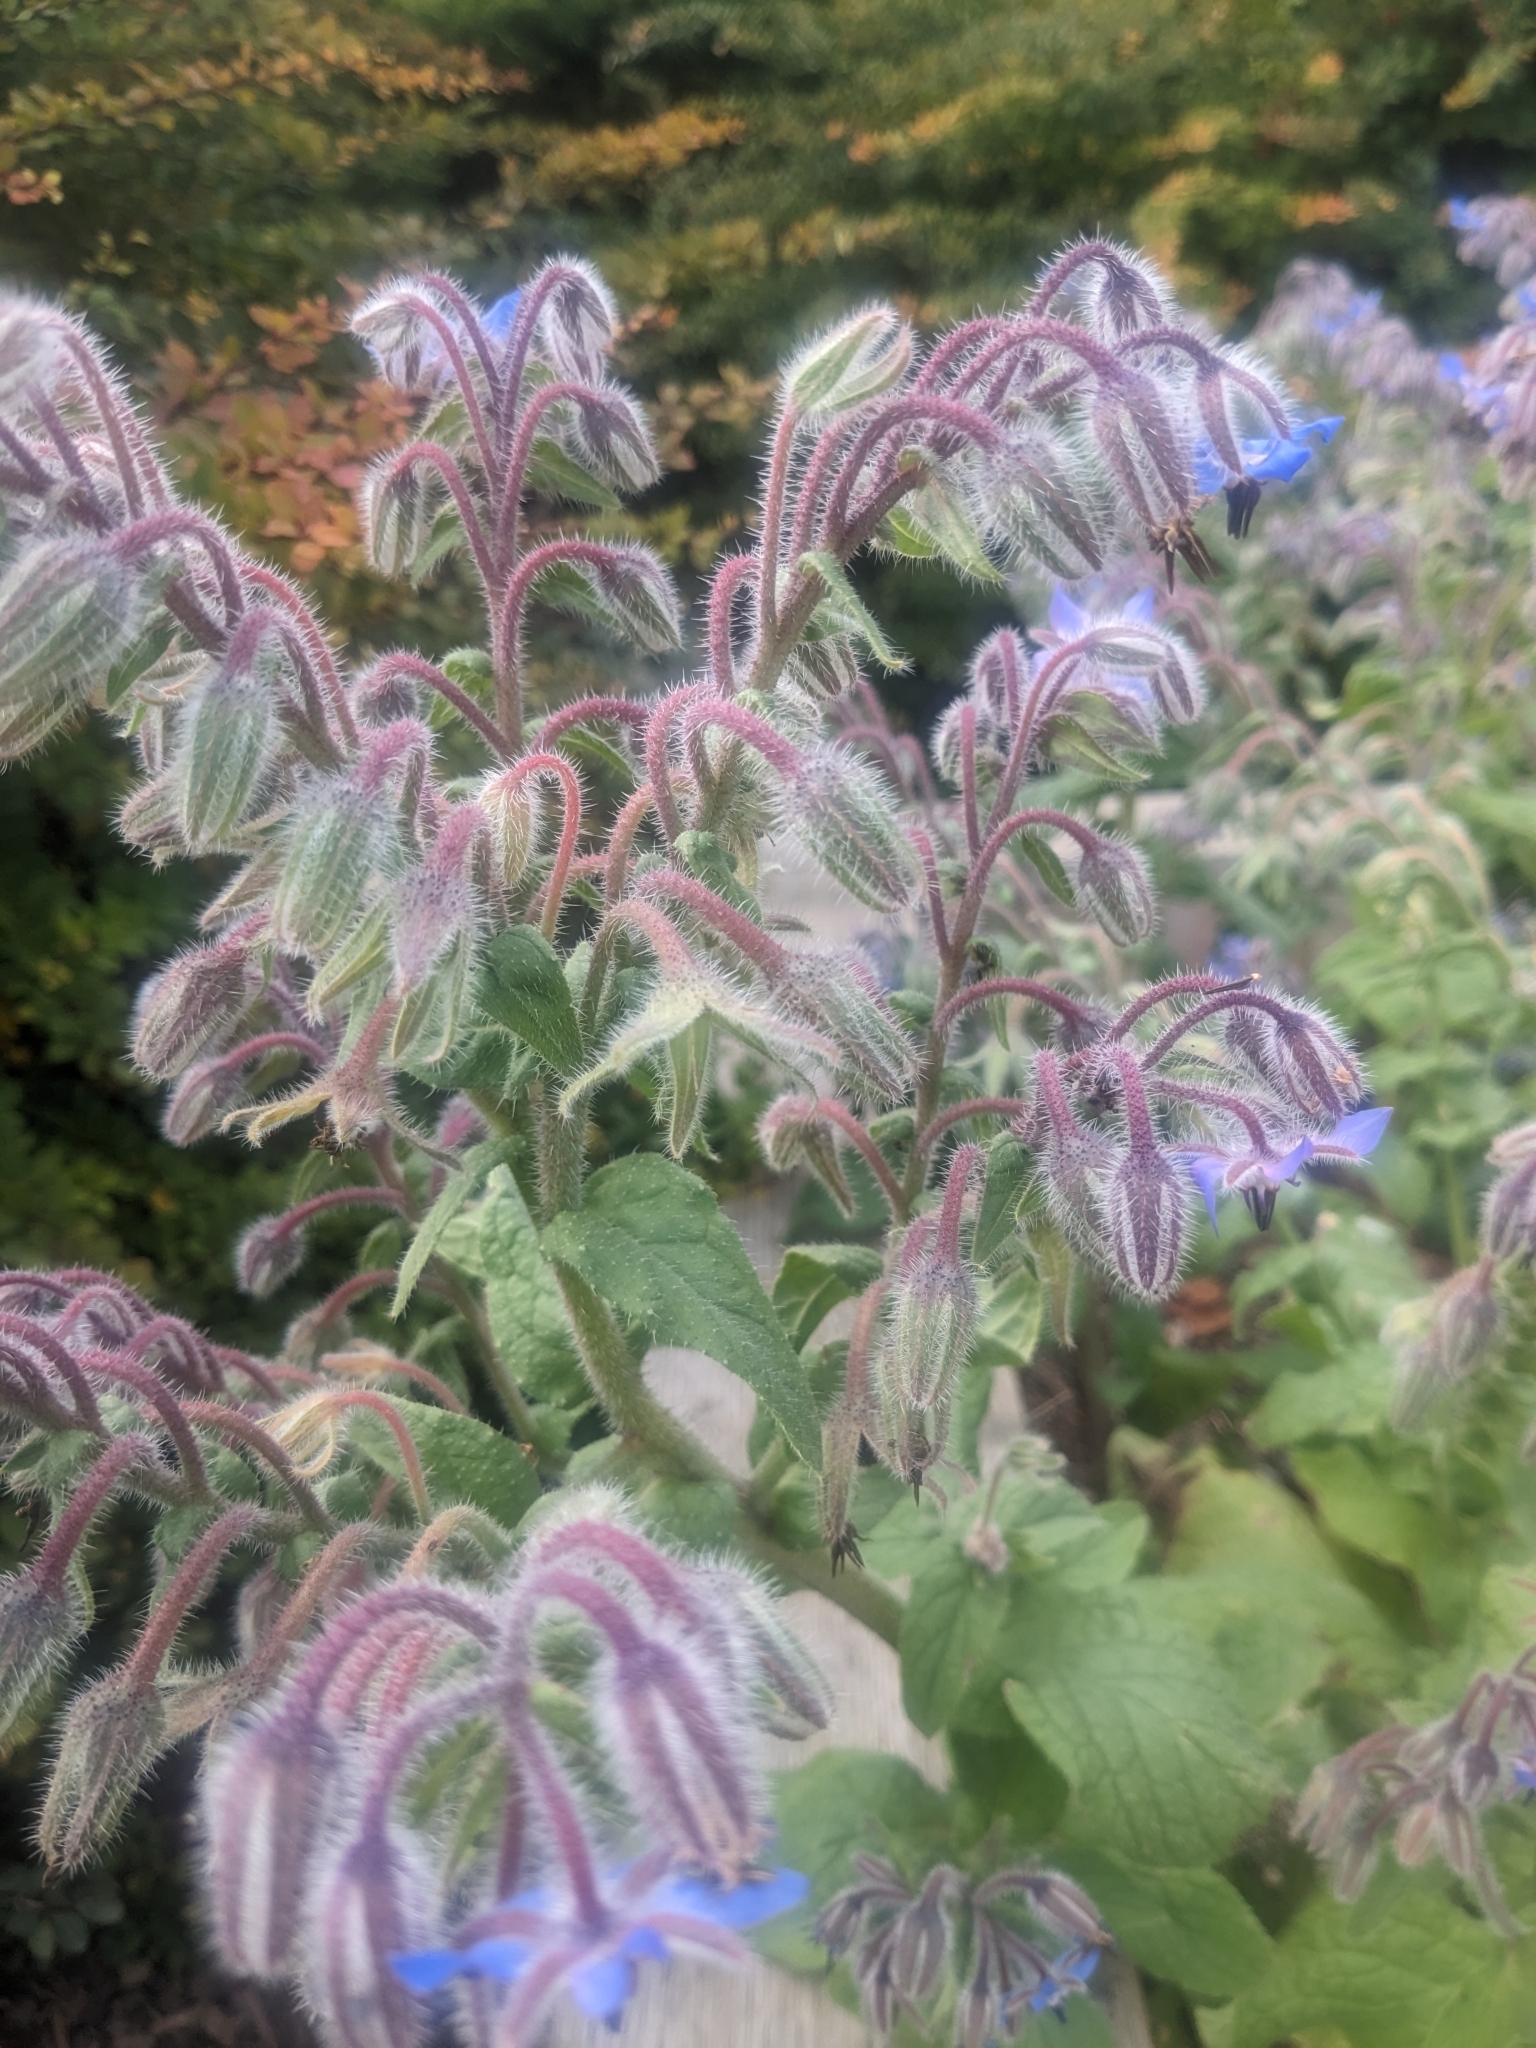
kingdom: Plantae
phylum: Tracheophyta
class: Magnoliopsida
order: Boraginales
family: Boraginaceae
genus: Borago
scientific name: Borago officinalis
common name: Borage
